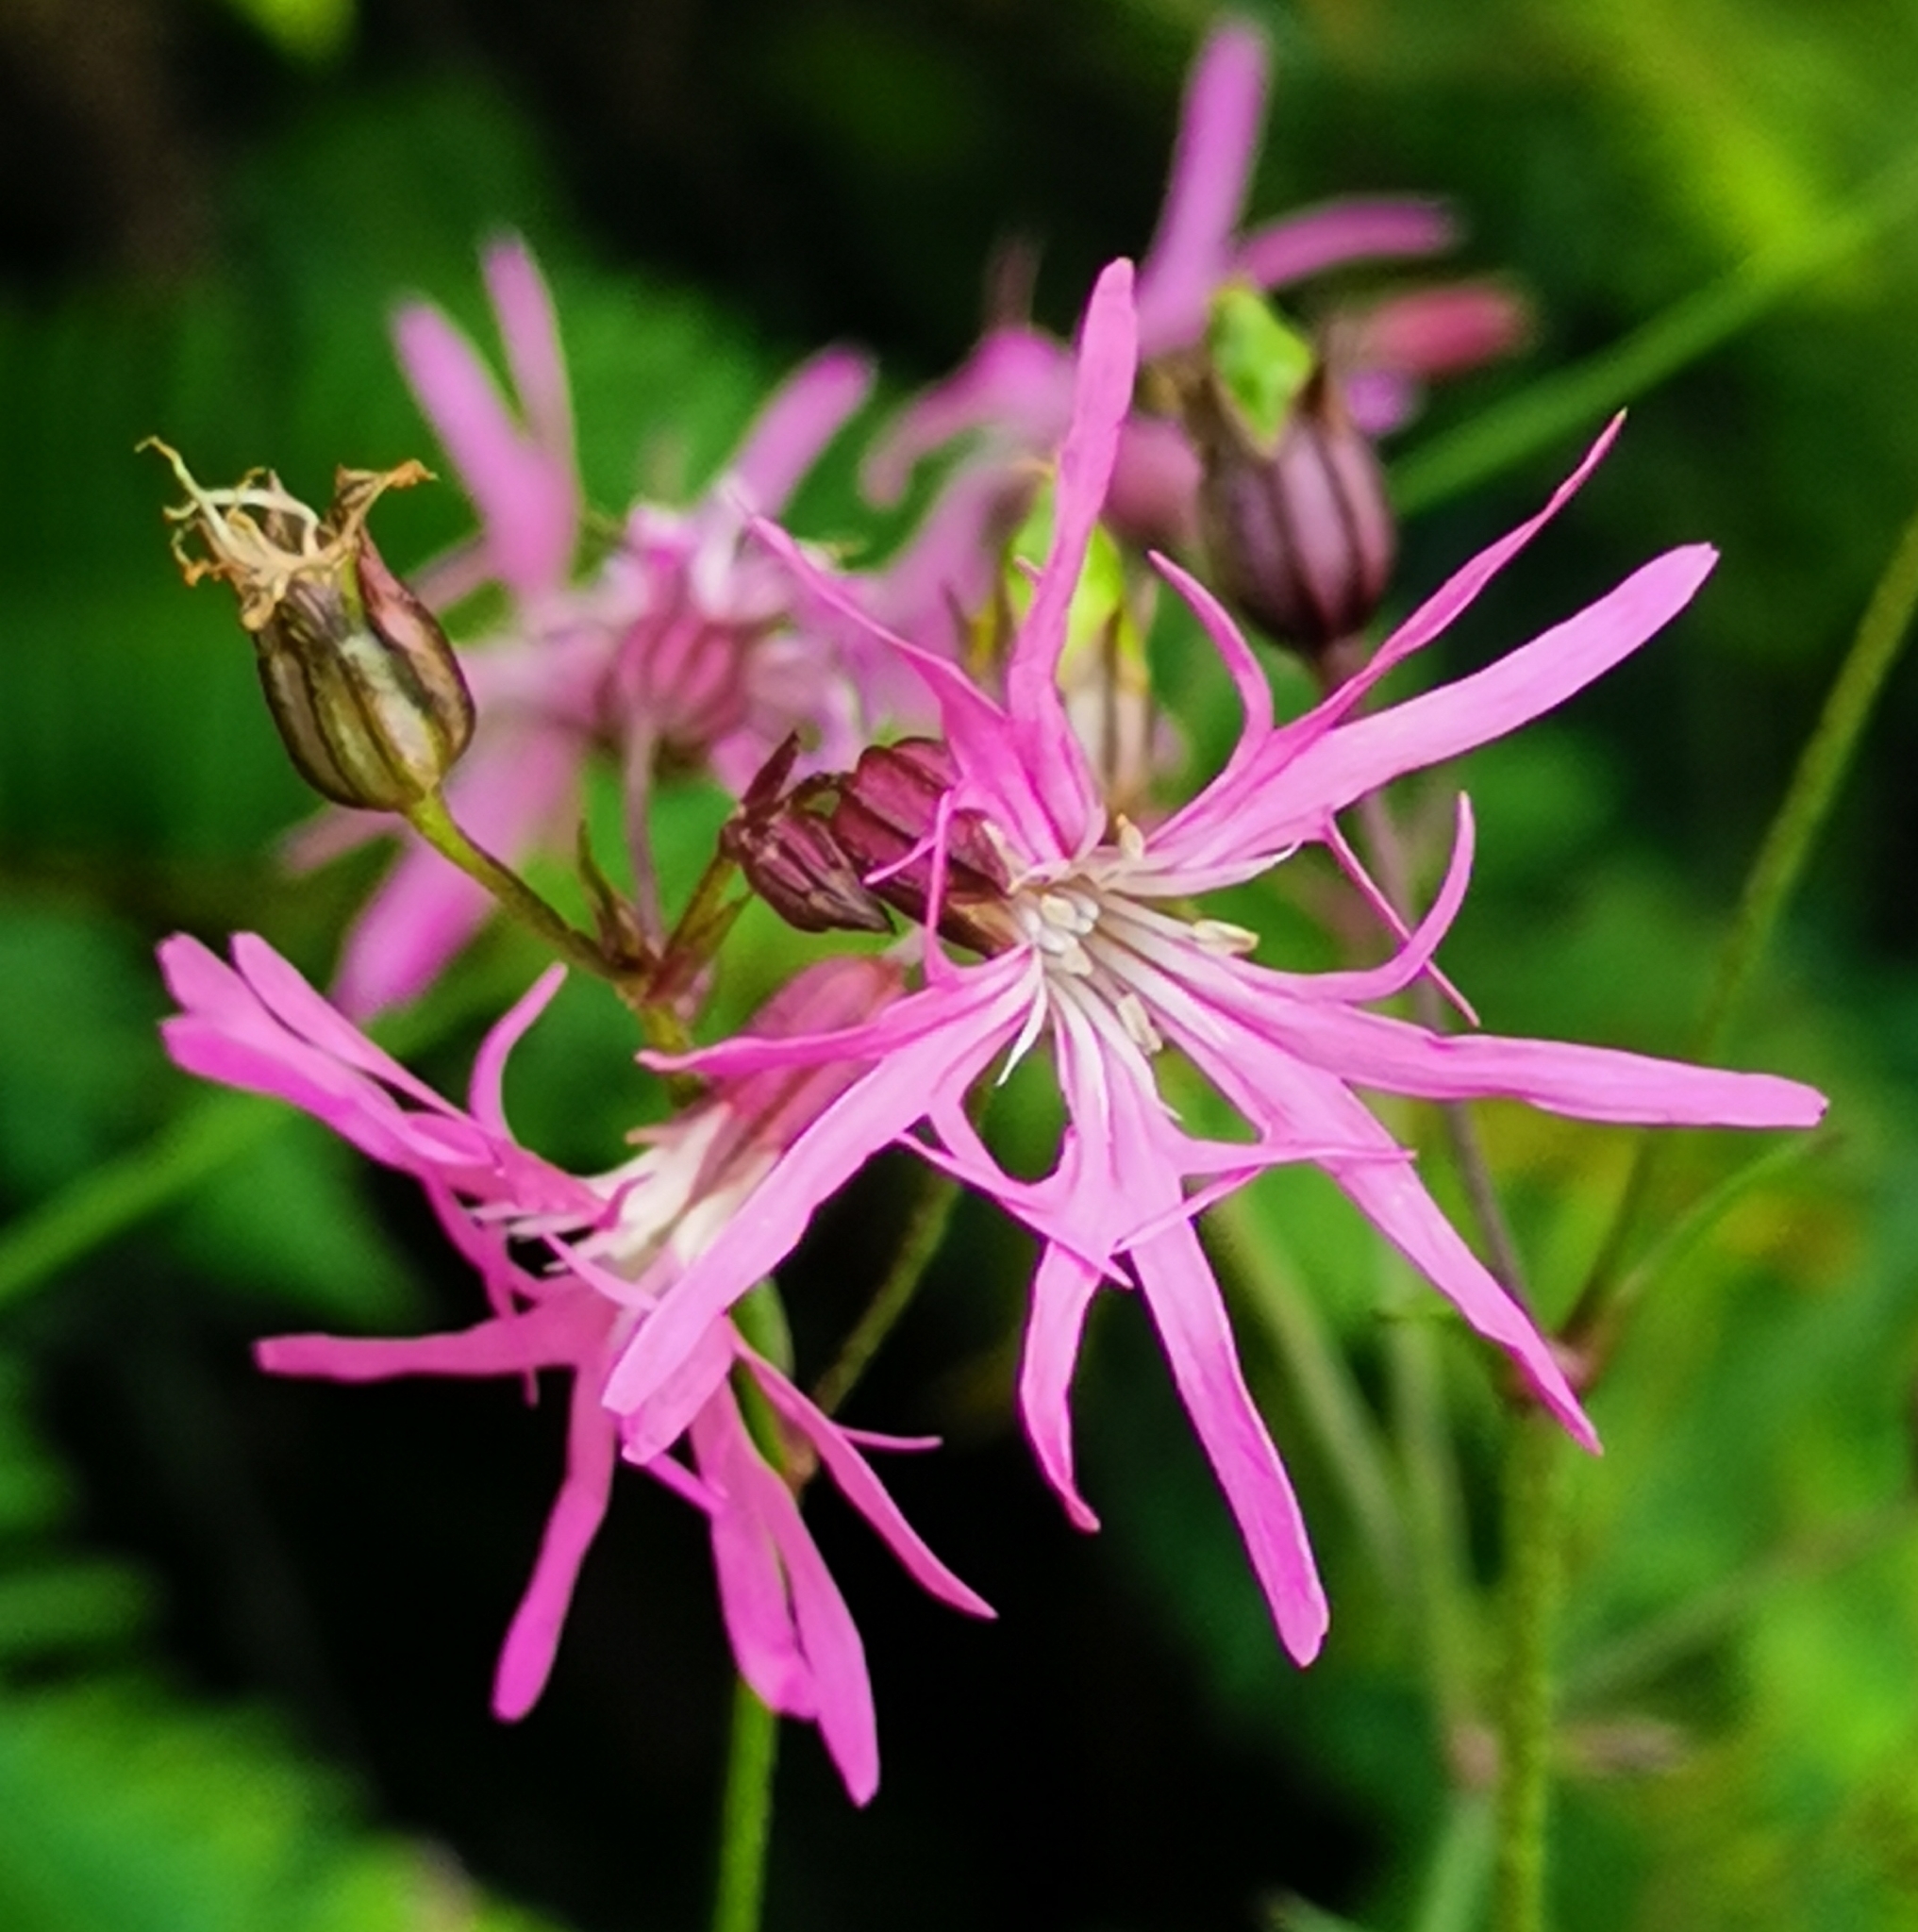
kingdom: Plantae
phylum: Tracheophyta
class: Magnoliopsida
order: Caryophyllales
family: Caryophyllaceae
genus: Silene
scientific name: Silene flos-cuculi
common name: Ragged-robin
